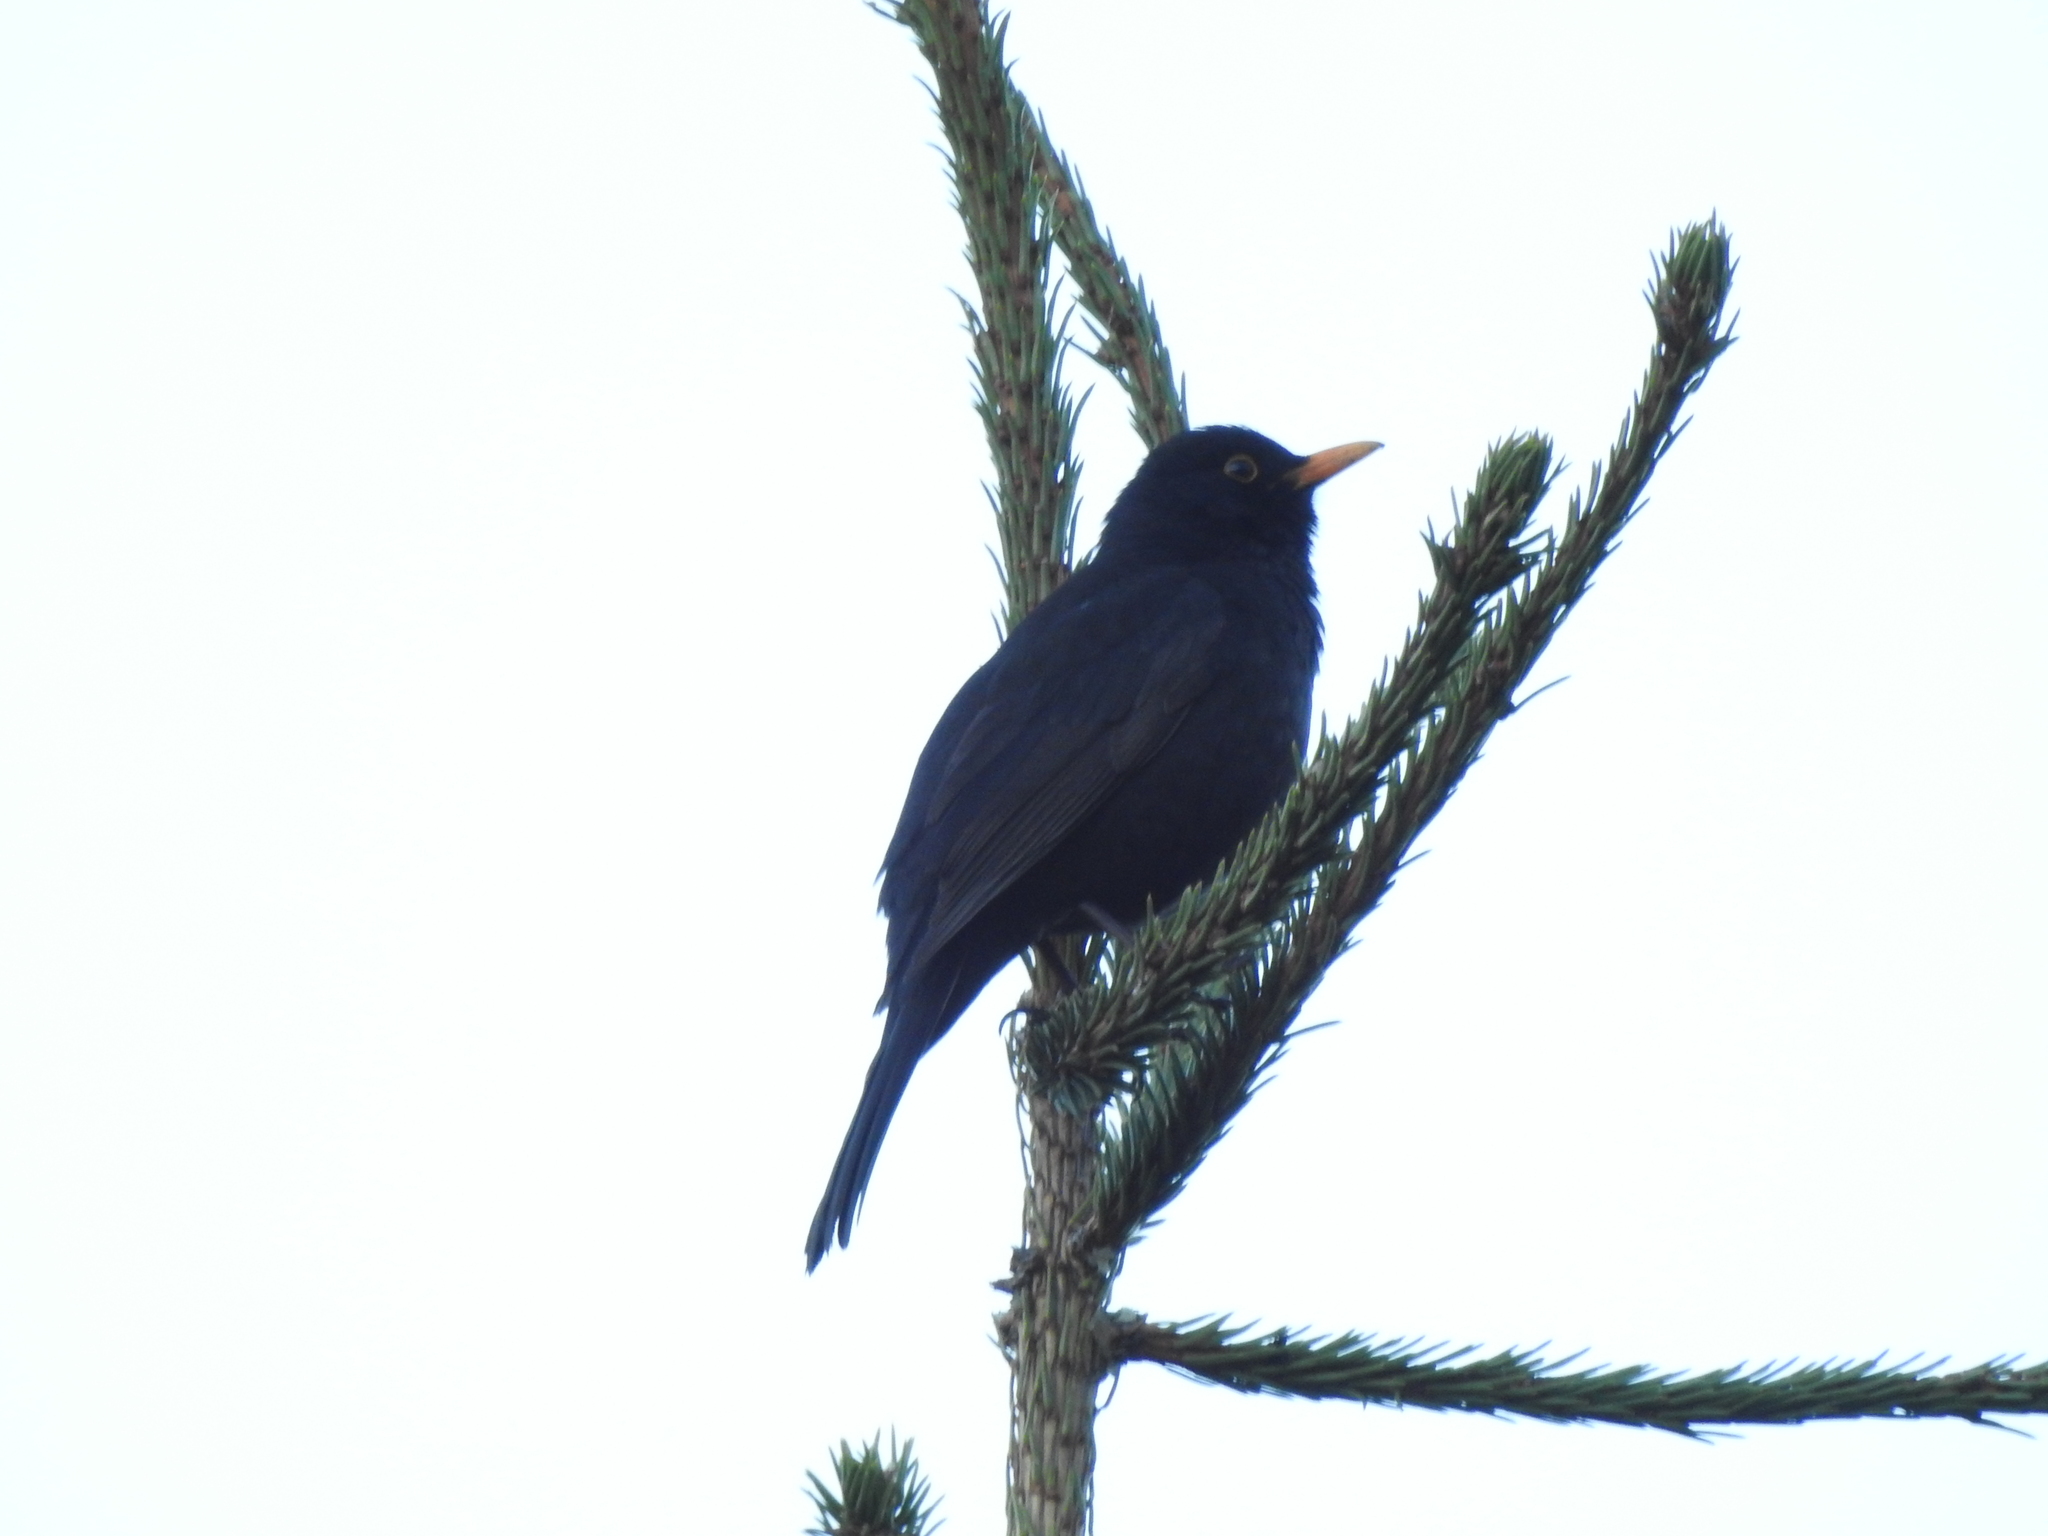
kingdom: Animalia
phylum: Chordata
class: Aves
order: Passeriformes
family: Turdidae
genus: Turdus
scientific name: Turdus merula
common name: Common blackbird
